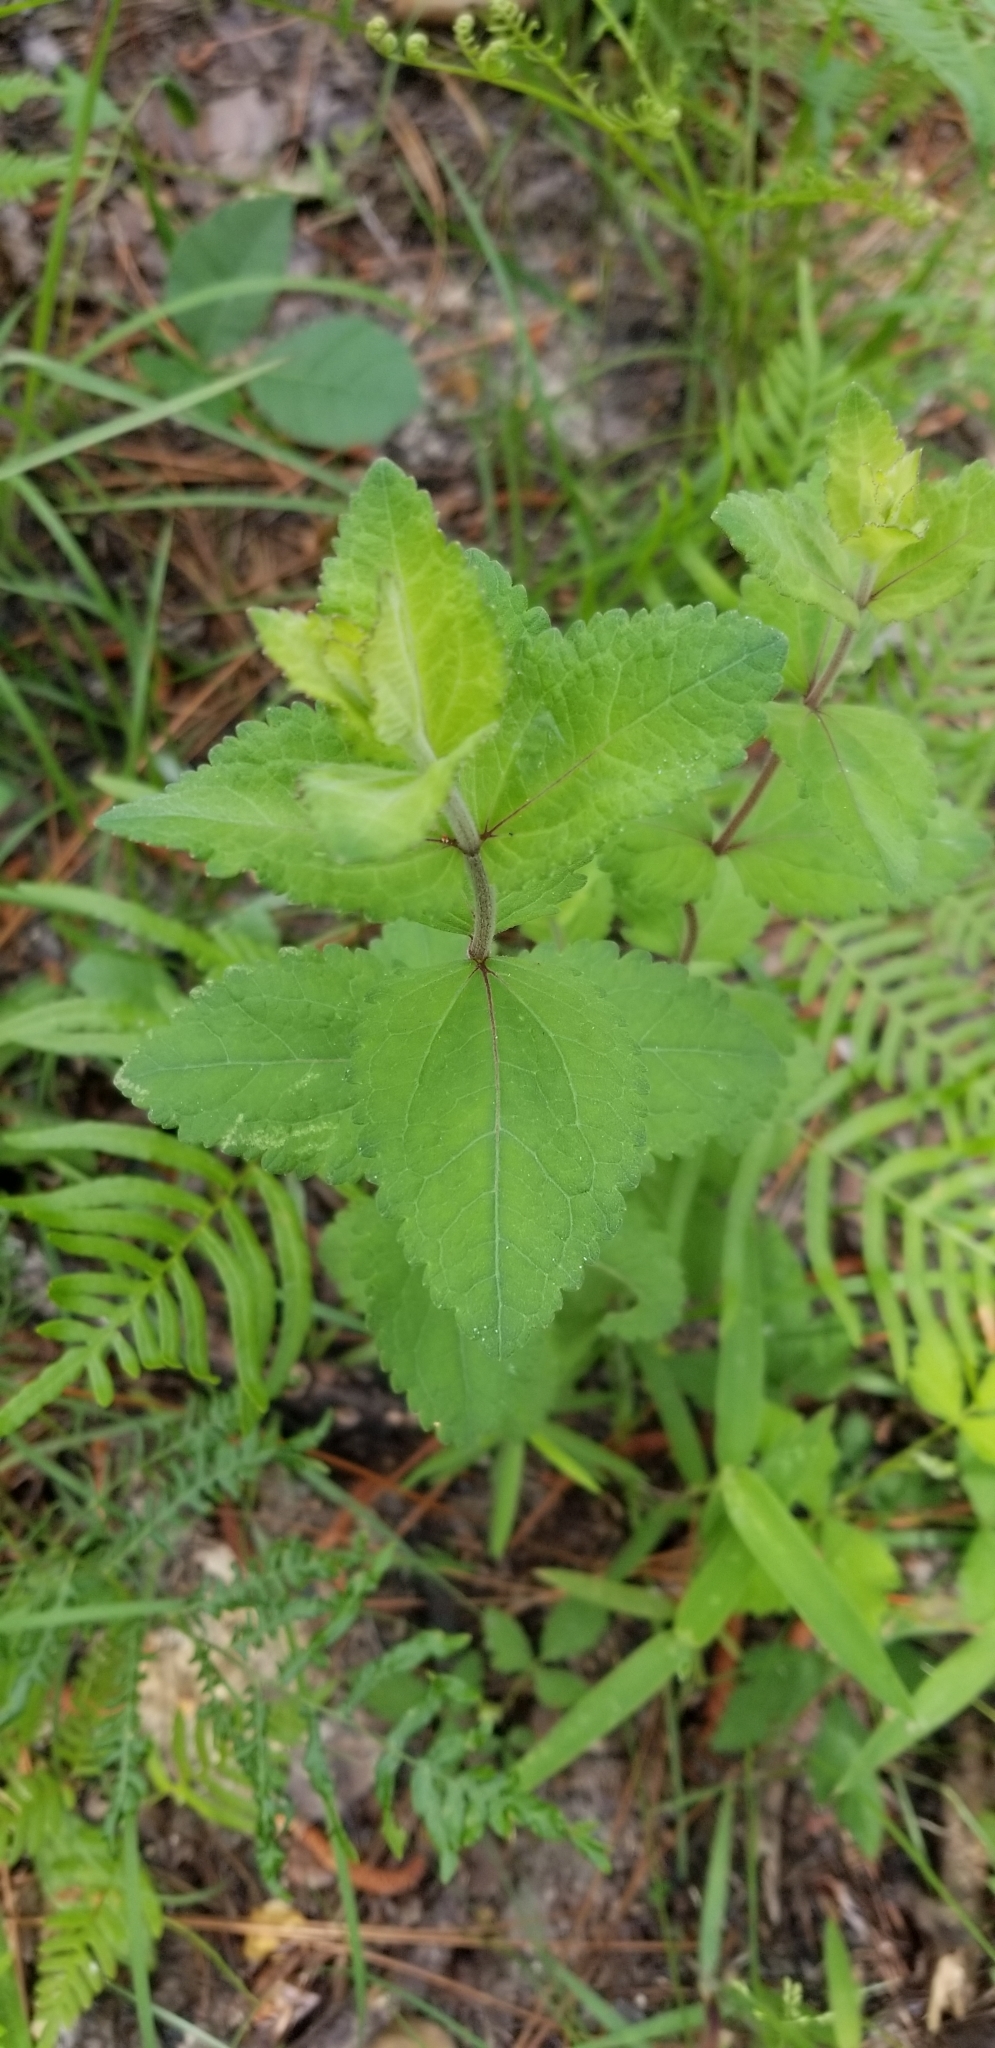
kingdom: Plantae
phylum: Tracheophyta
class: Magnoliopsida
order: Asterales
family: Asteraceae
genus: Eupatorium
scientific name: Eupatorium rotundifolium
